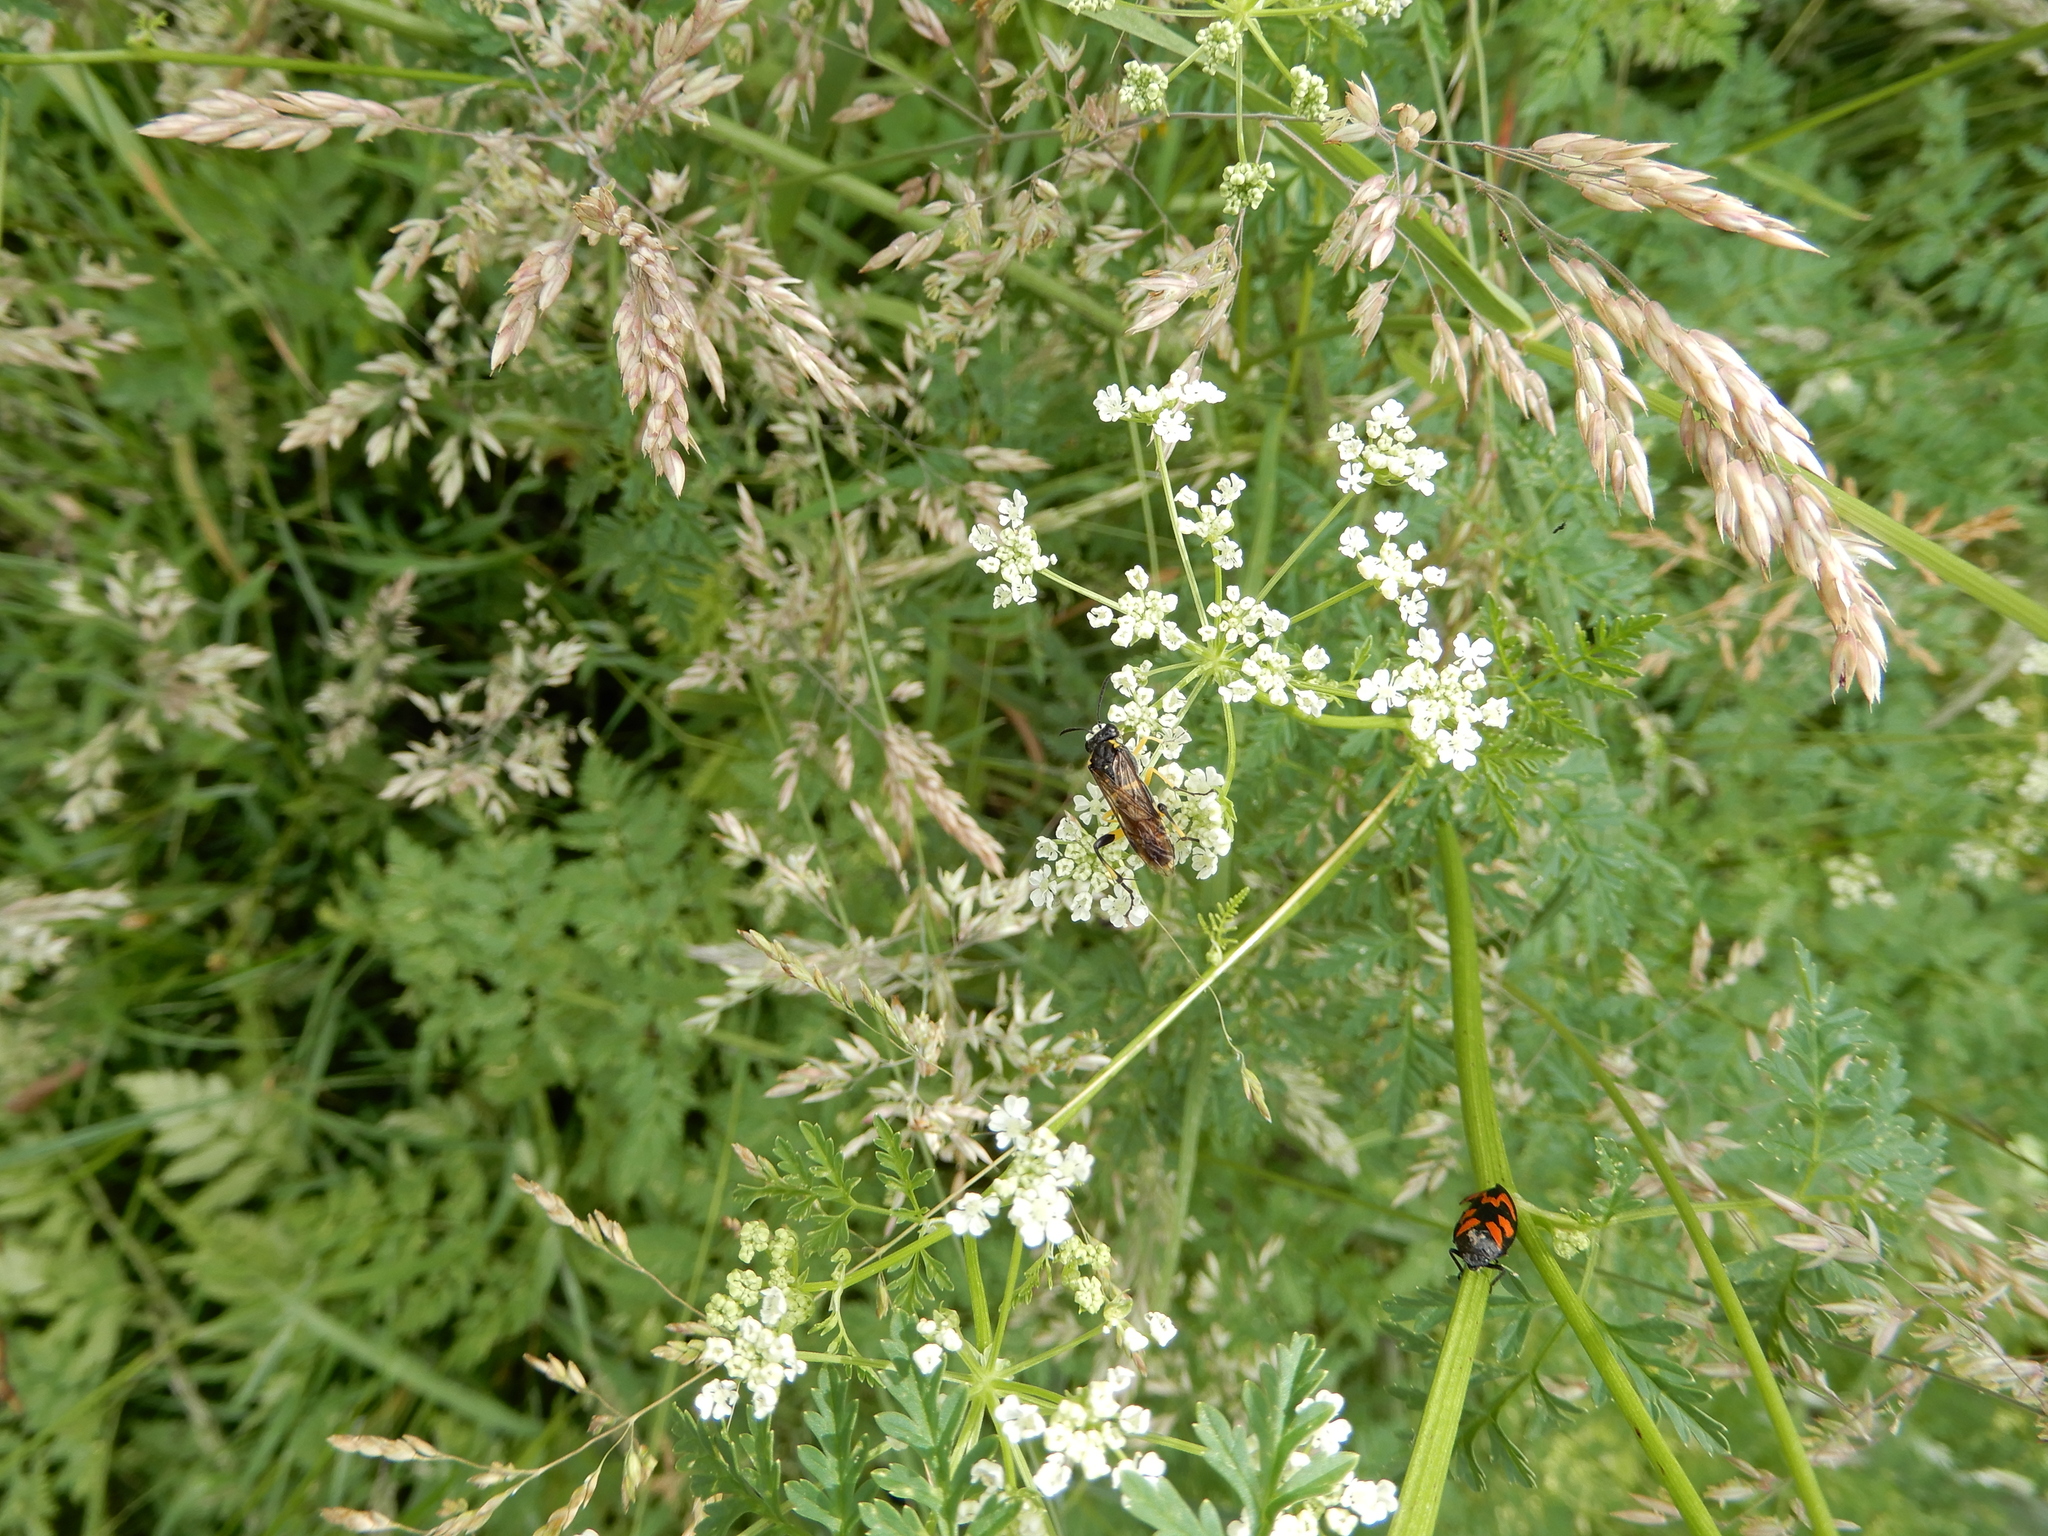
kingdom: Animalia
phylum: Arthropoda
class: Insecta
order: Hemiptera
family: Cercopidae
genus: Cercopis
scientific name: Cercopis vulnerata
